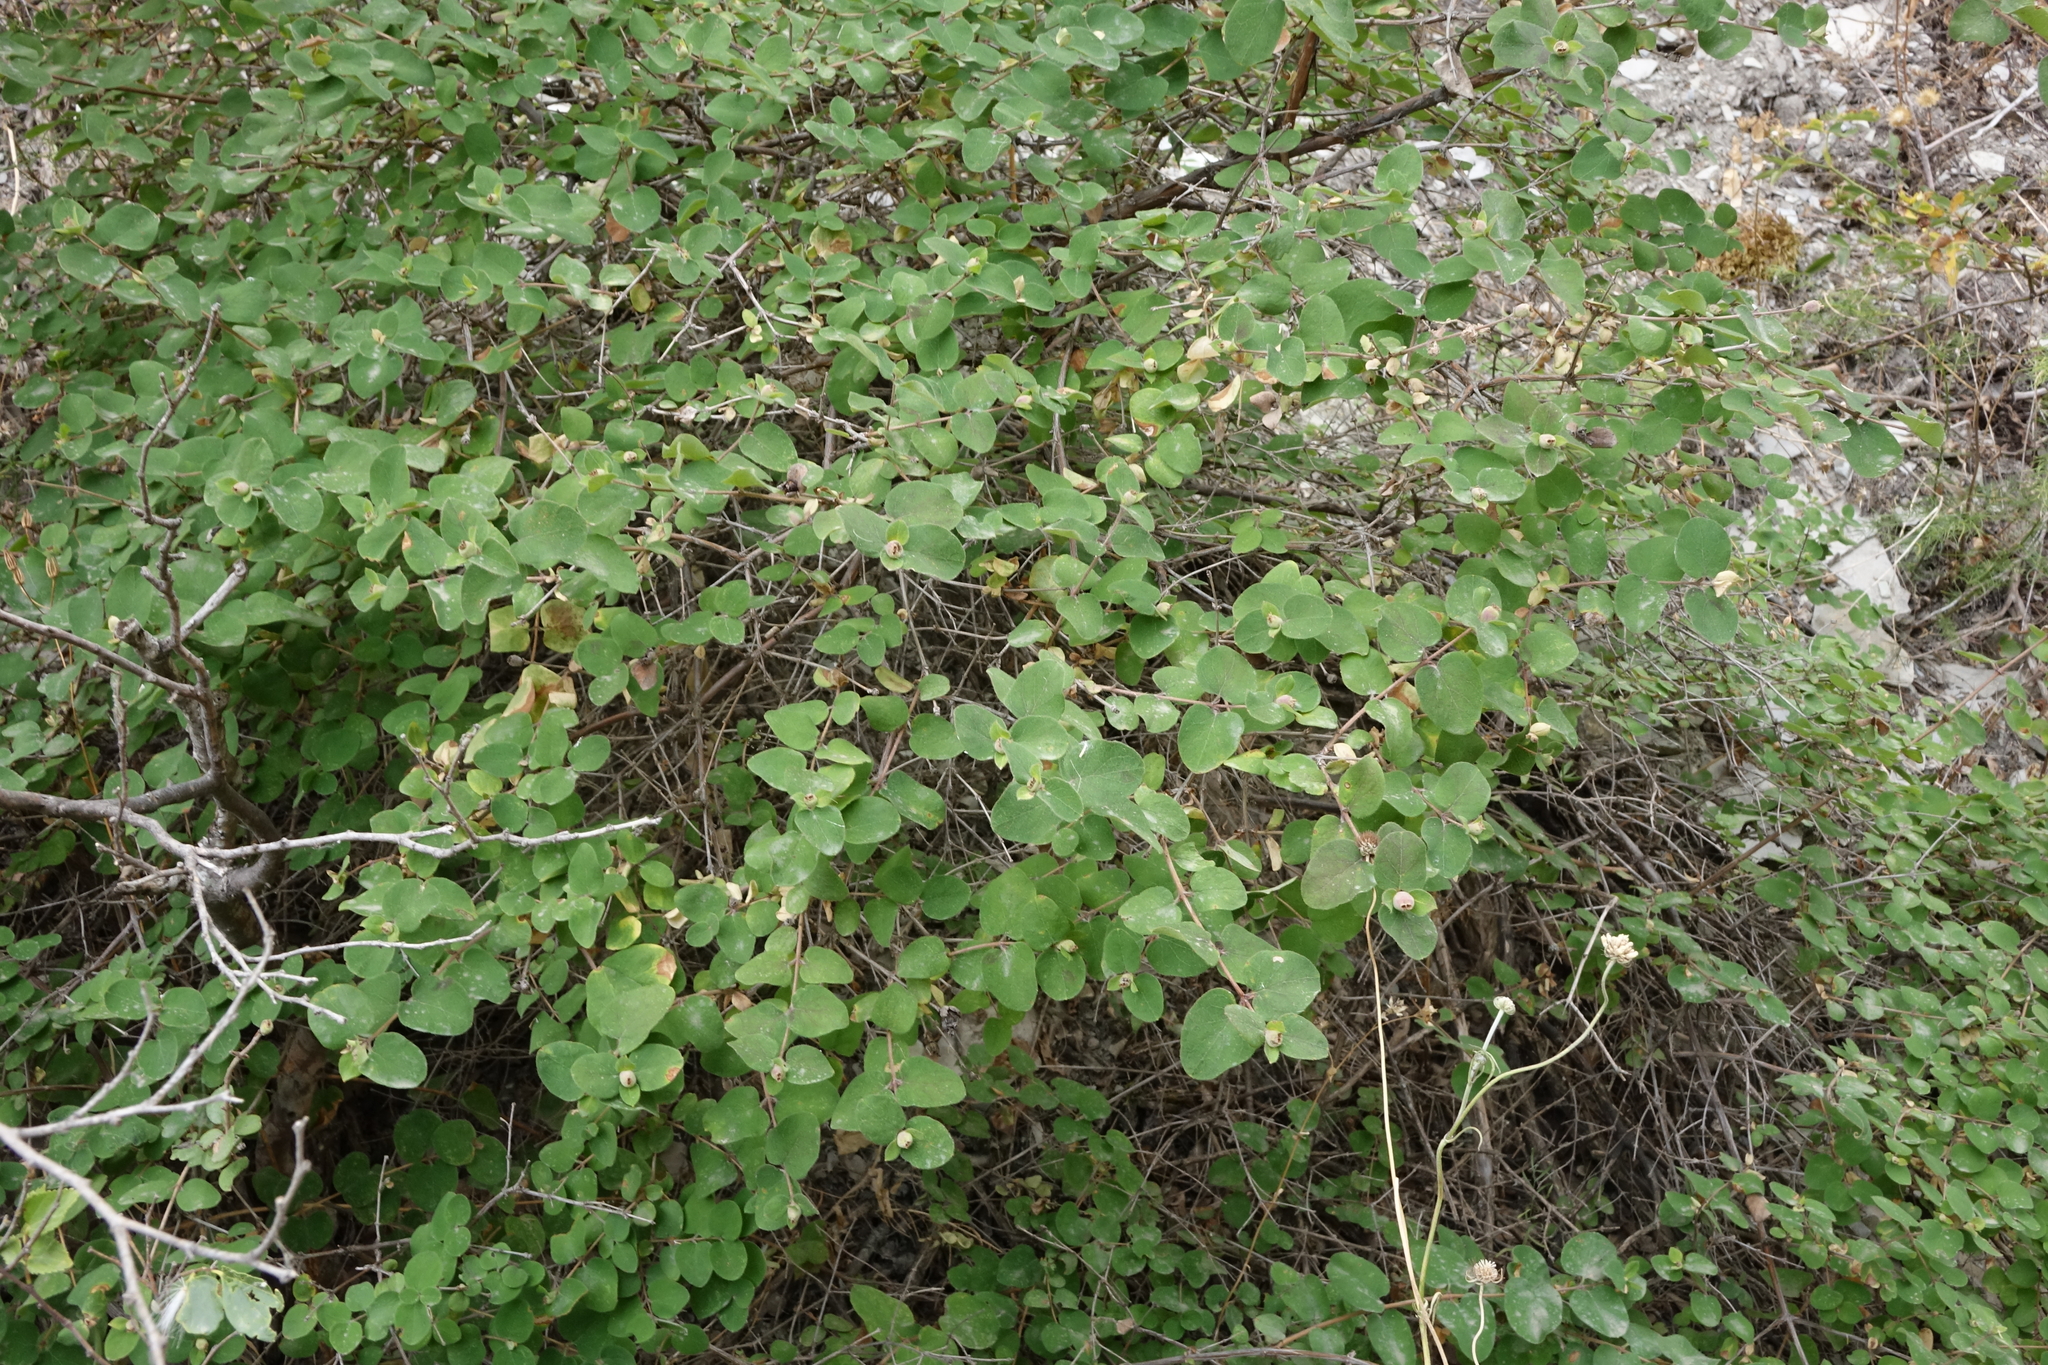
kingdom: Plantae
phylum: Tracheophyta
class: Magnoliopsida
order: Dipsacales
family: Caprifoliaceae
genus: Lonicera
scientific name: Lonicera iberica
